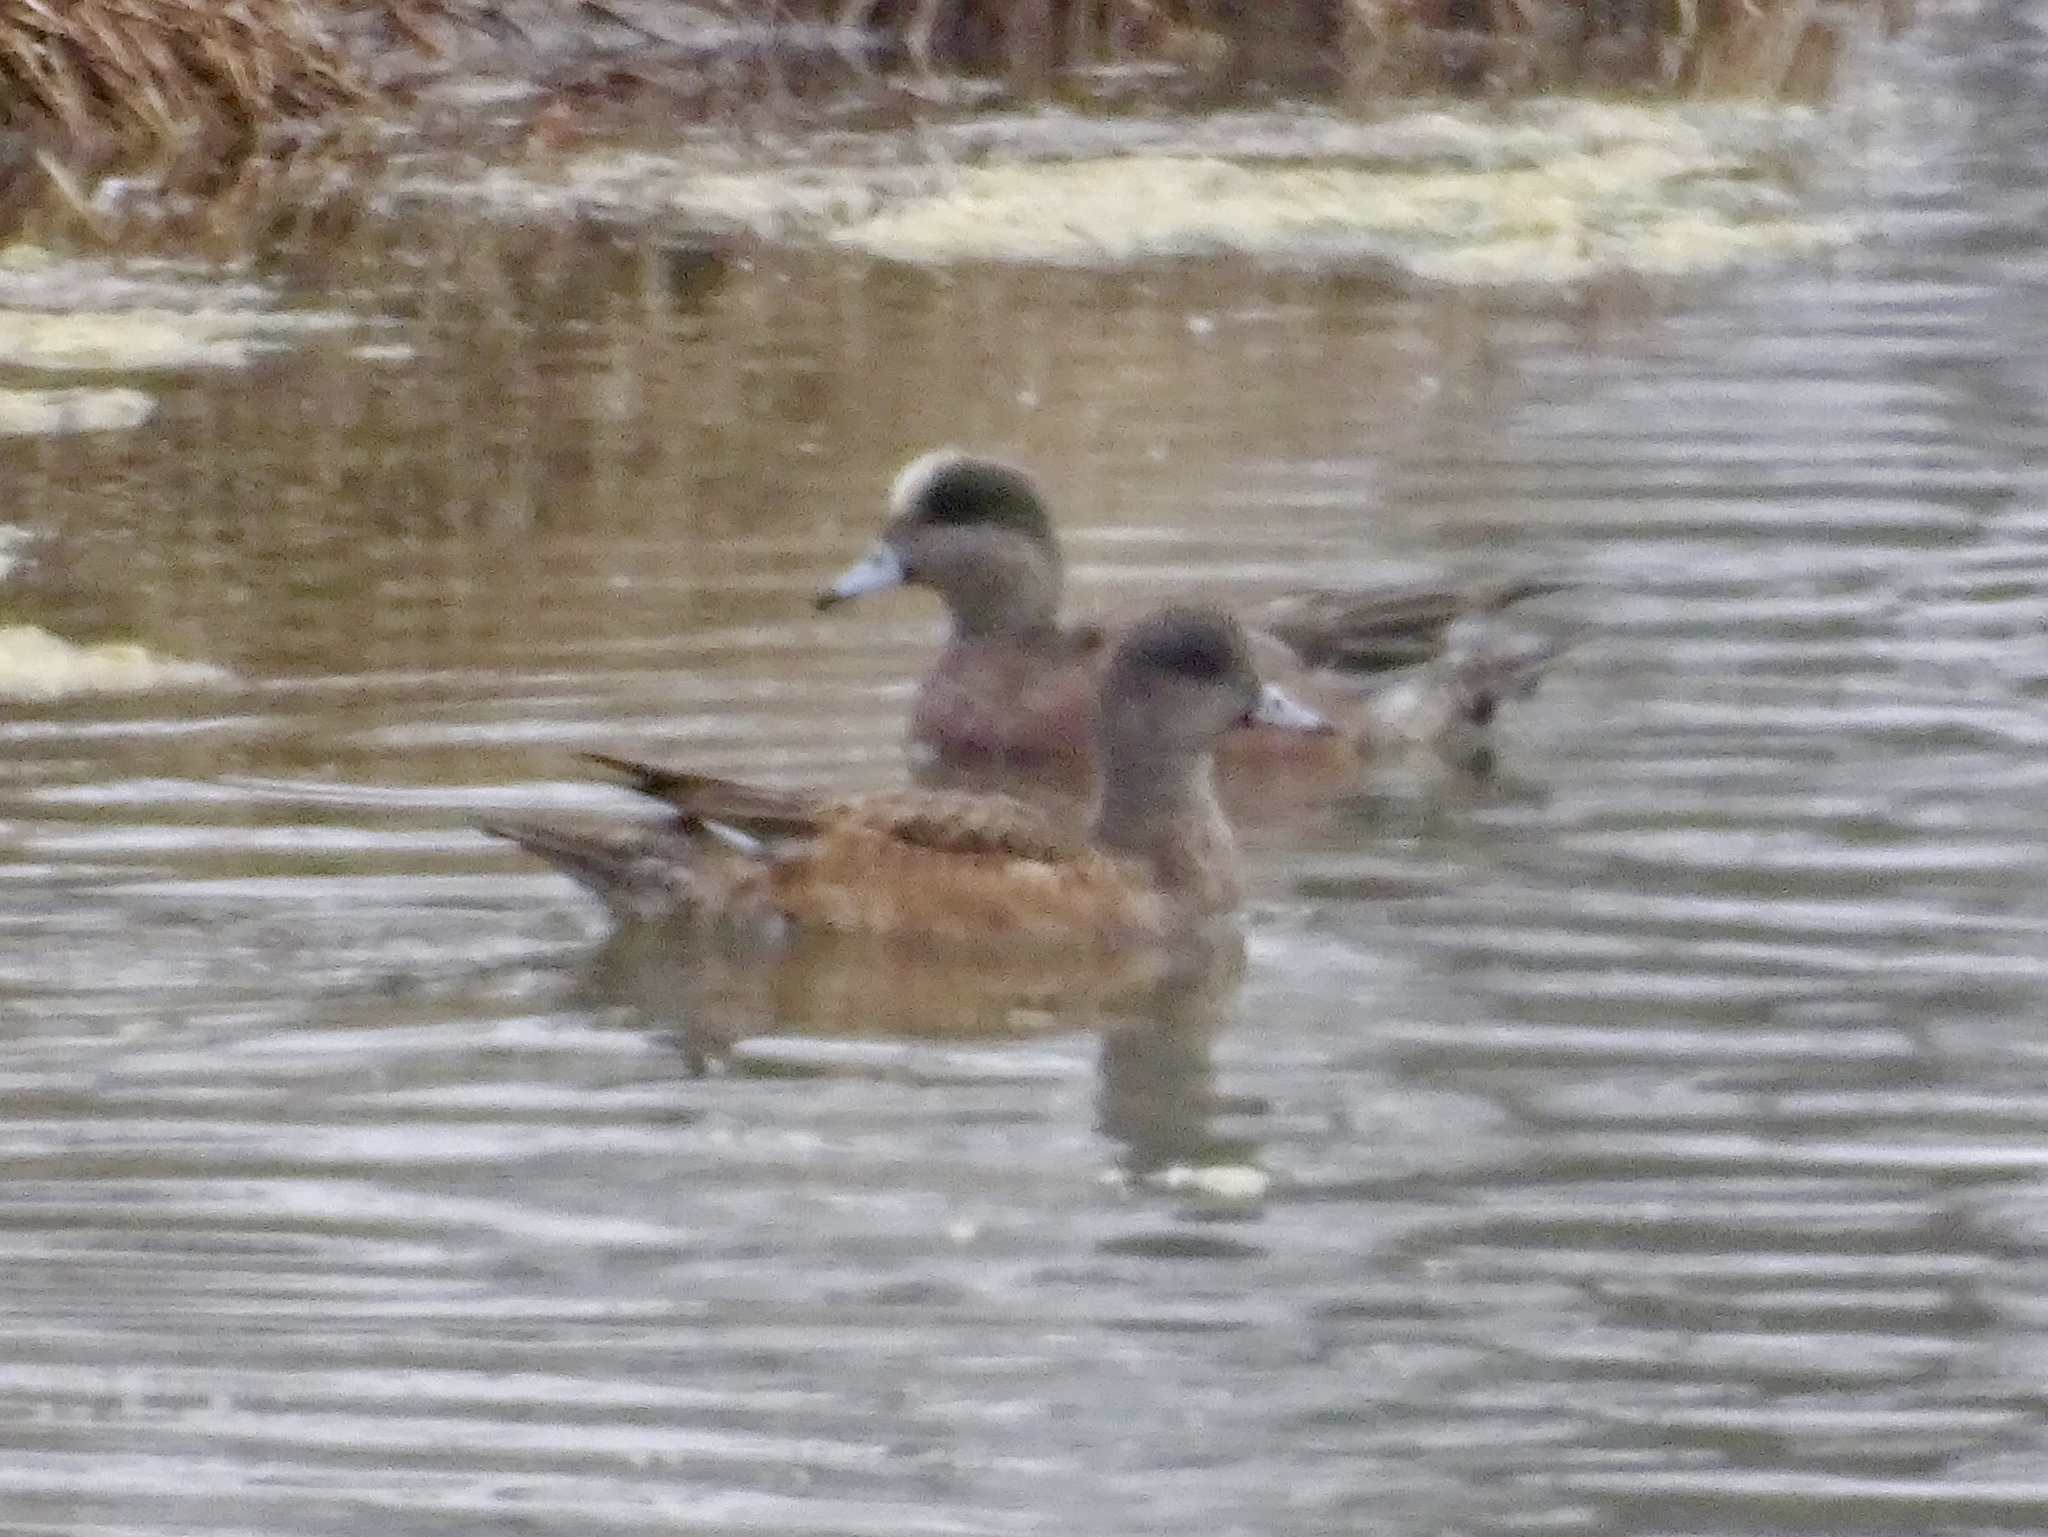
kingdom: Animalia
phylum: Chordata
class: Aves
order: Anseriformes
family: Anatidae
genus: Mareca
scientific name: Mareca americana
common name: American wigeon
